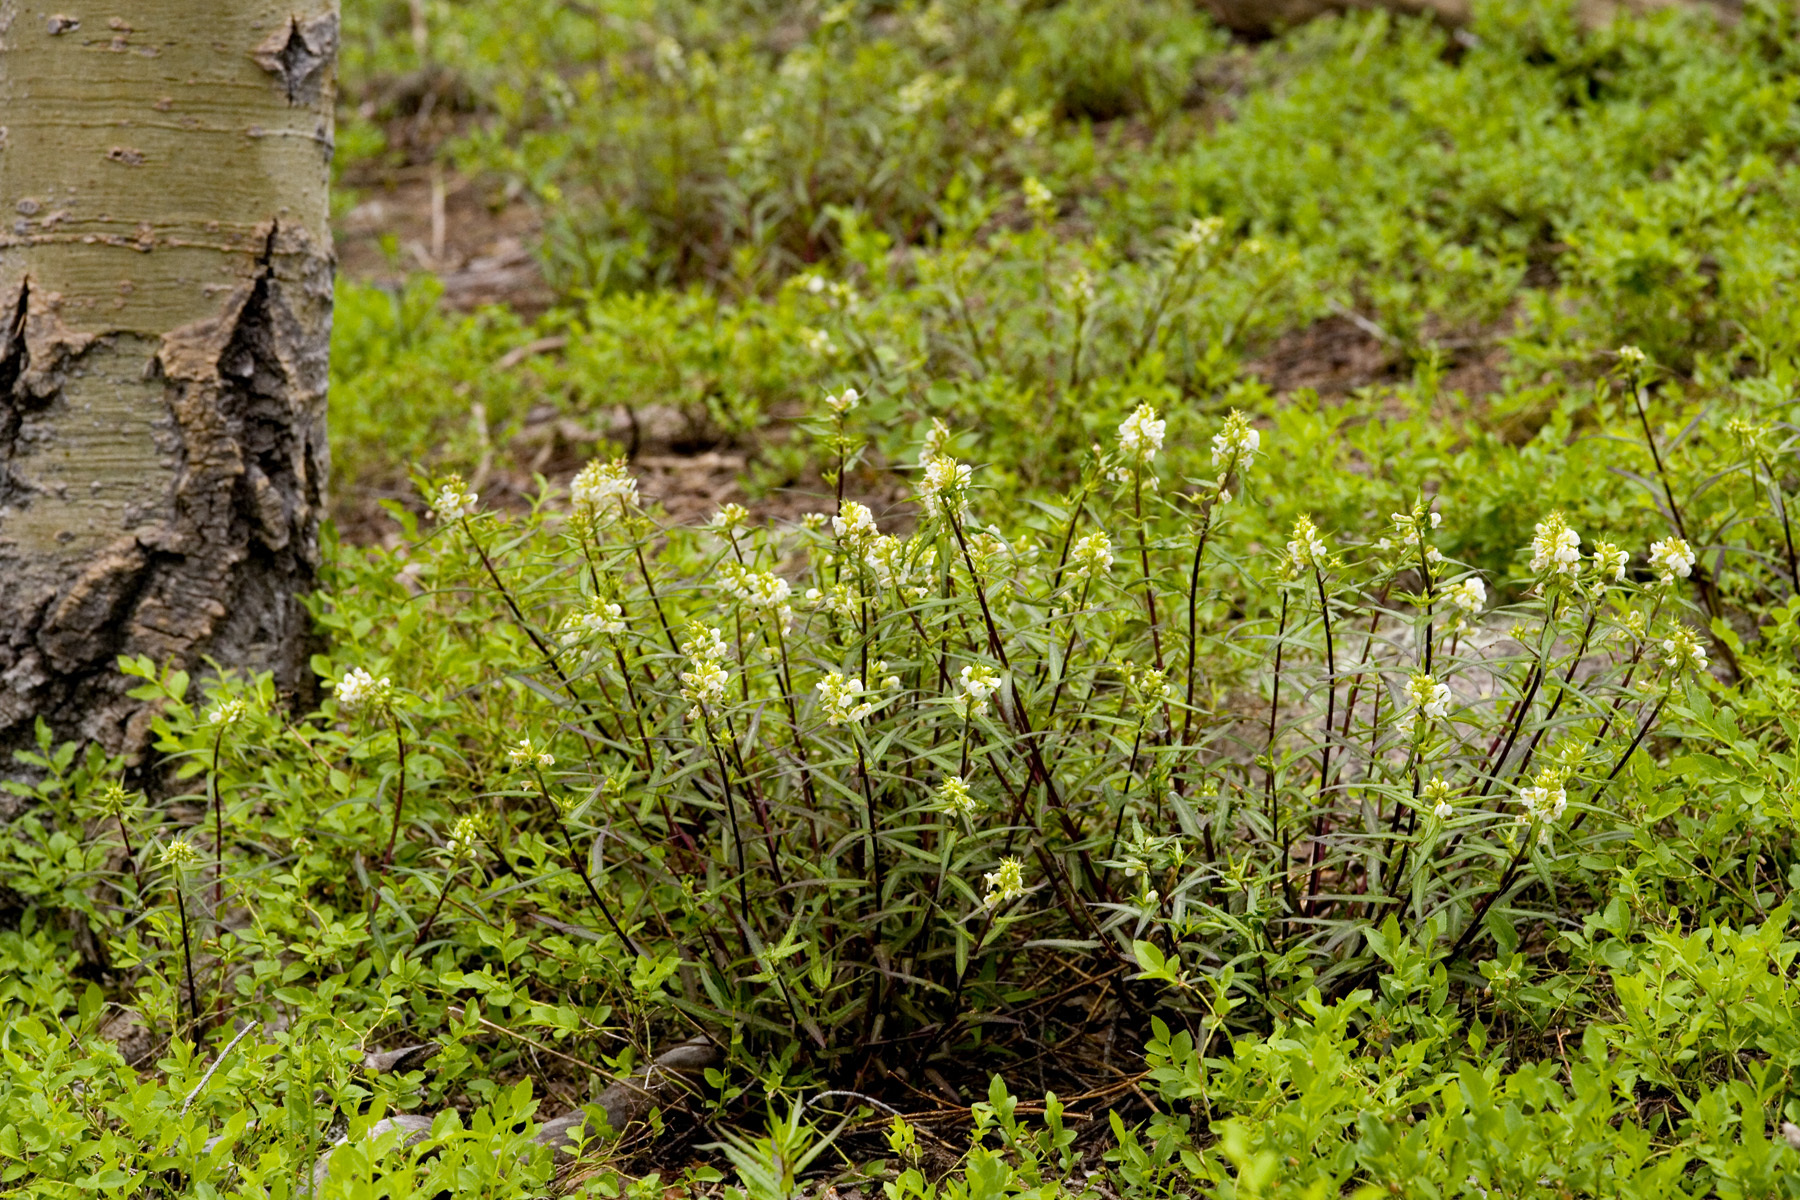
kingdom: Plantae
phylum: Tracheophyta
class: Magnoliopsida
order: Lamiales
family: Orobanchaceae
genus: Pedicularis
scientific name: Pedicularis racemosa
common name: Leafy lousewort
